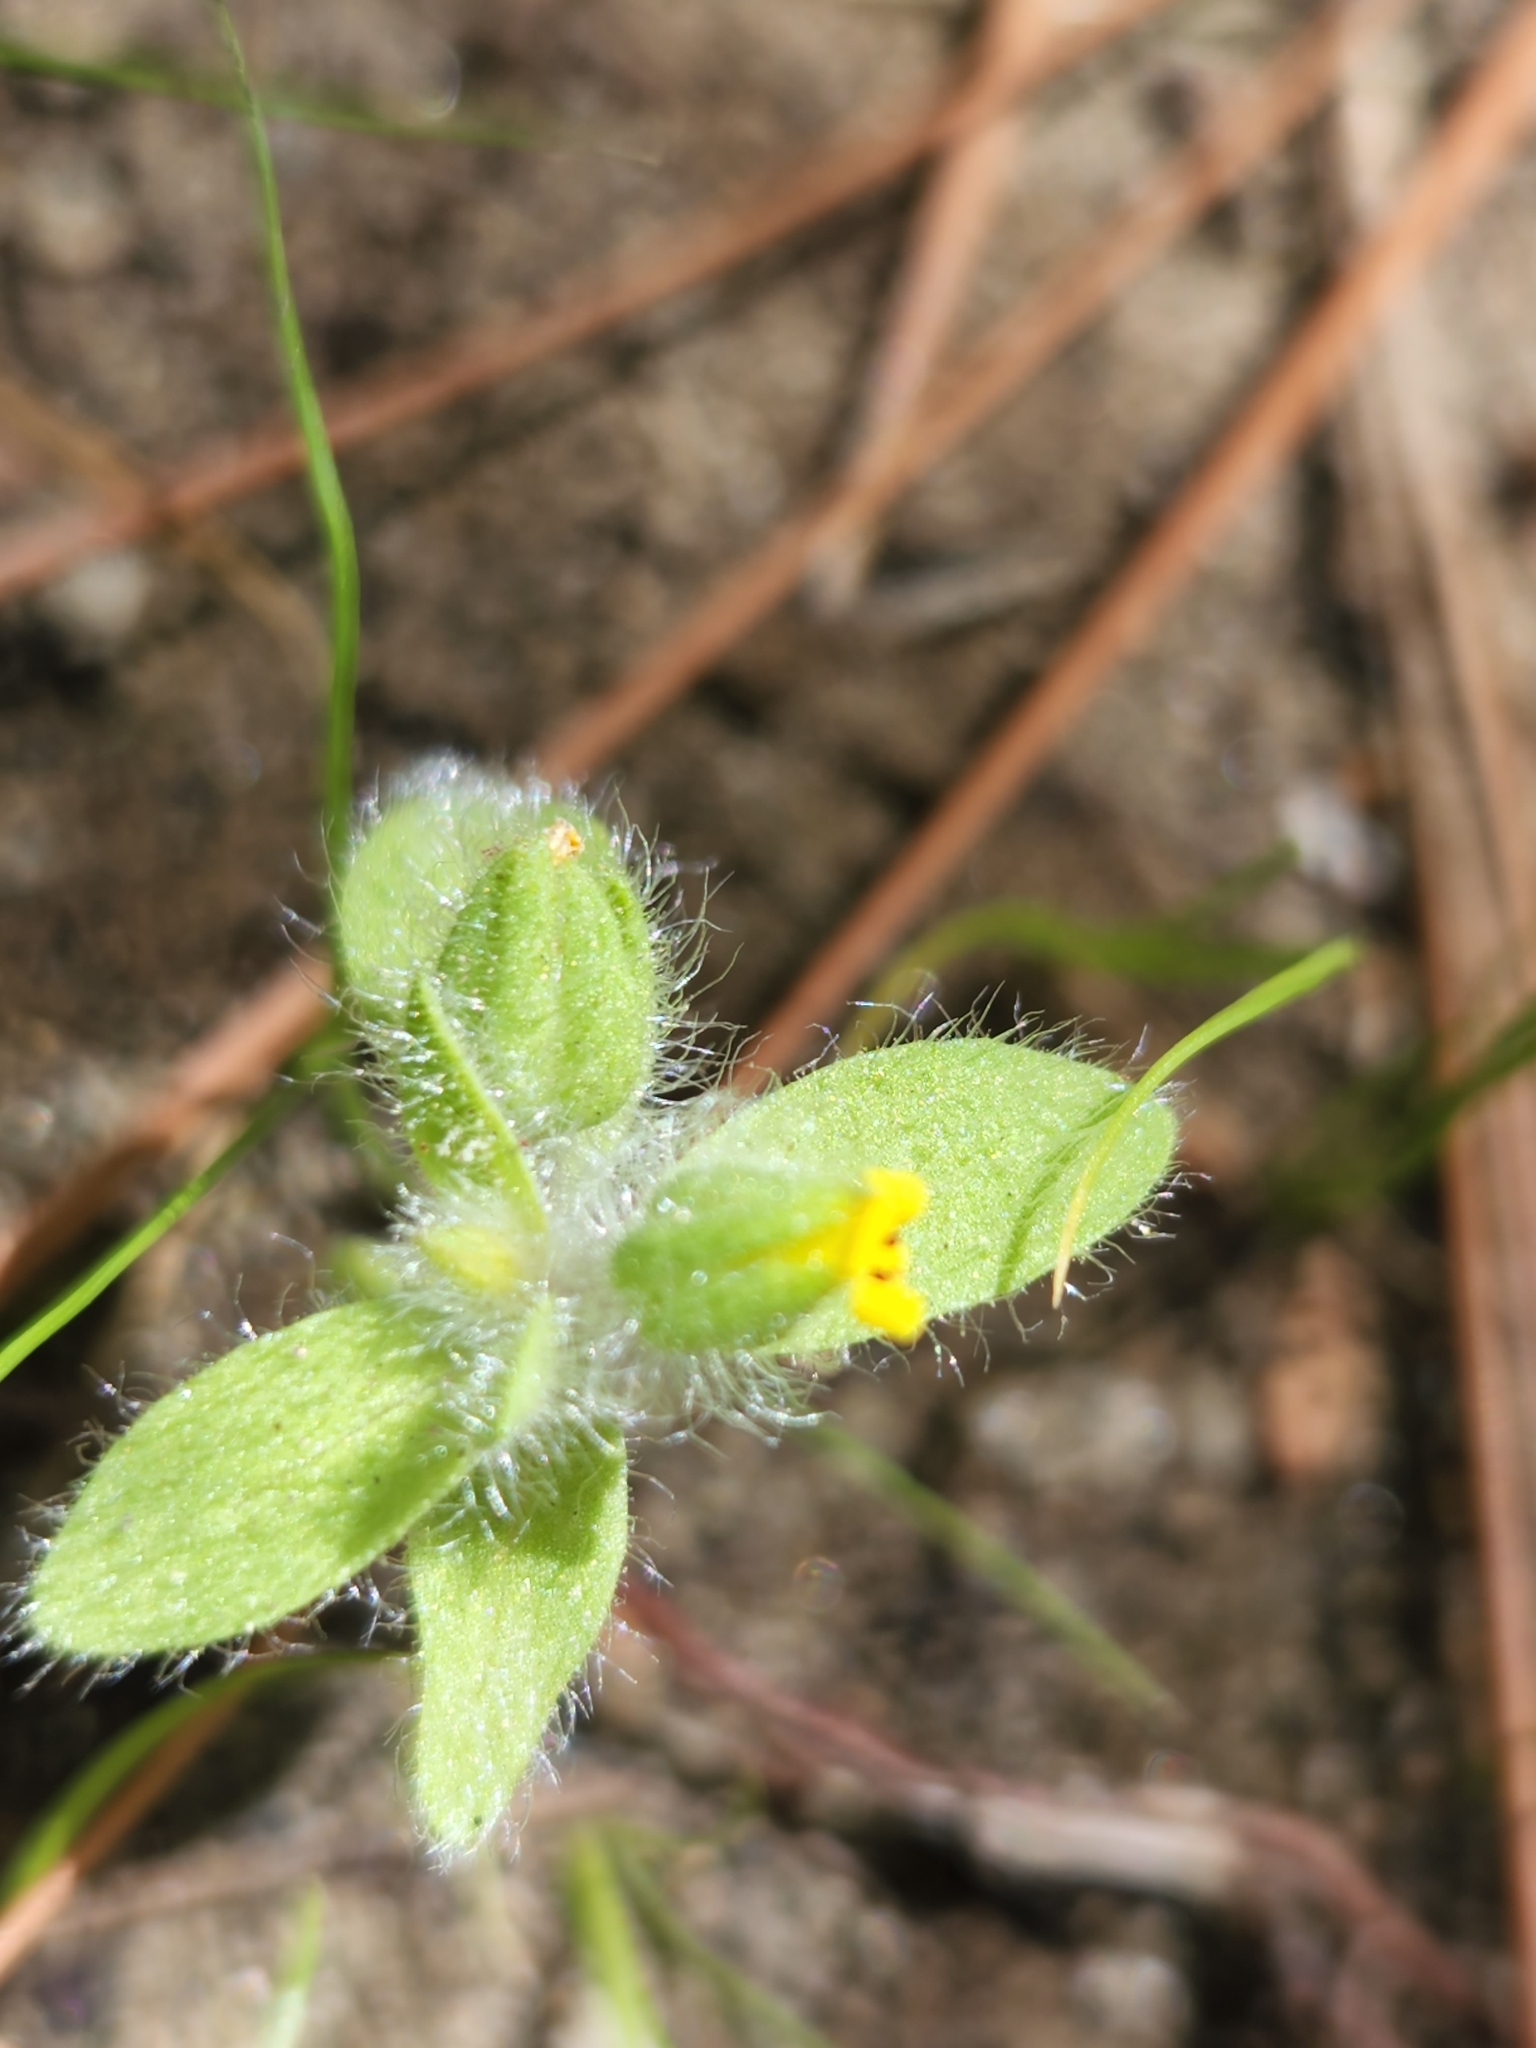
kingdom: Plantae
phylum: Tracheophyta
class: Magnoliopsida
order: Lamiales
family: Phrymaceae
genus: Mimetanthe
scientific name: Mimetanthe pilosa
